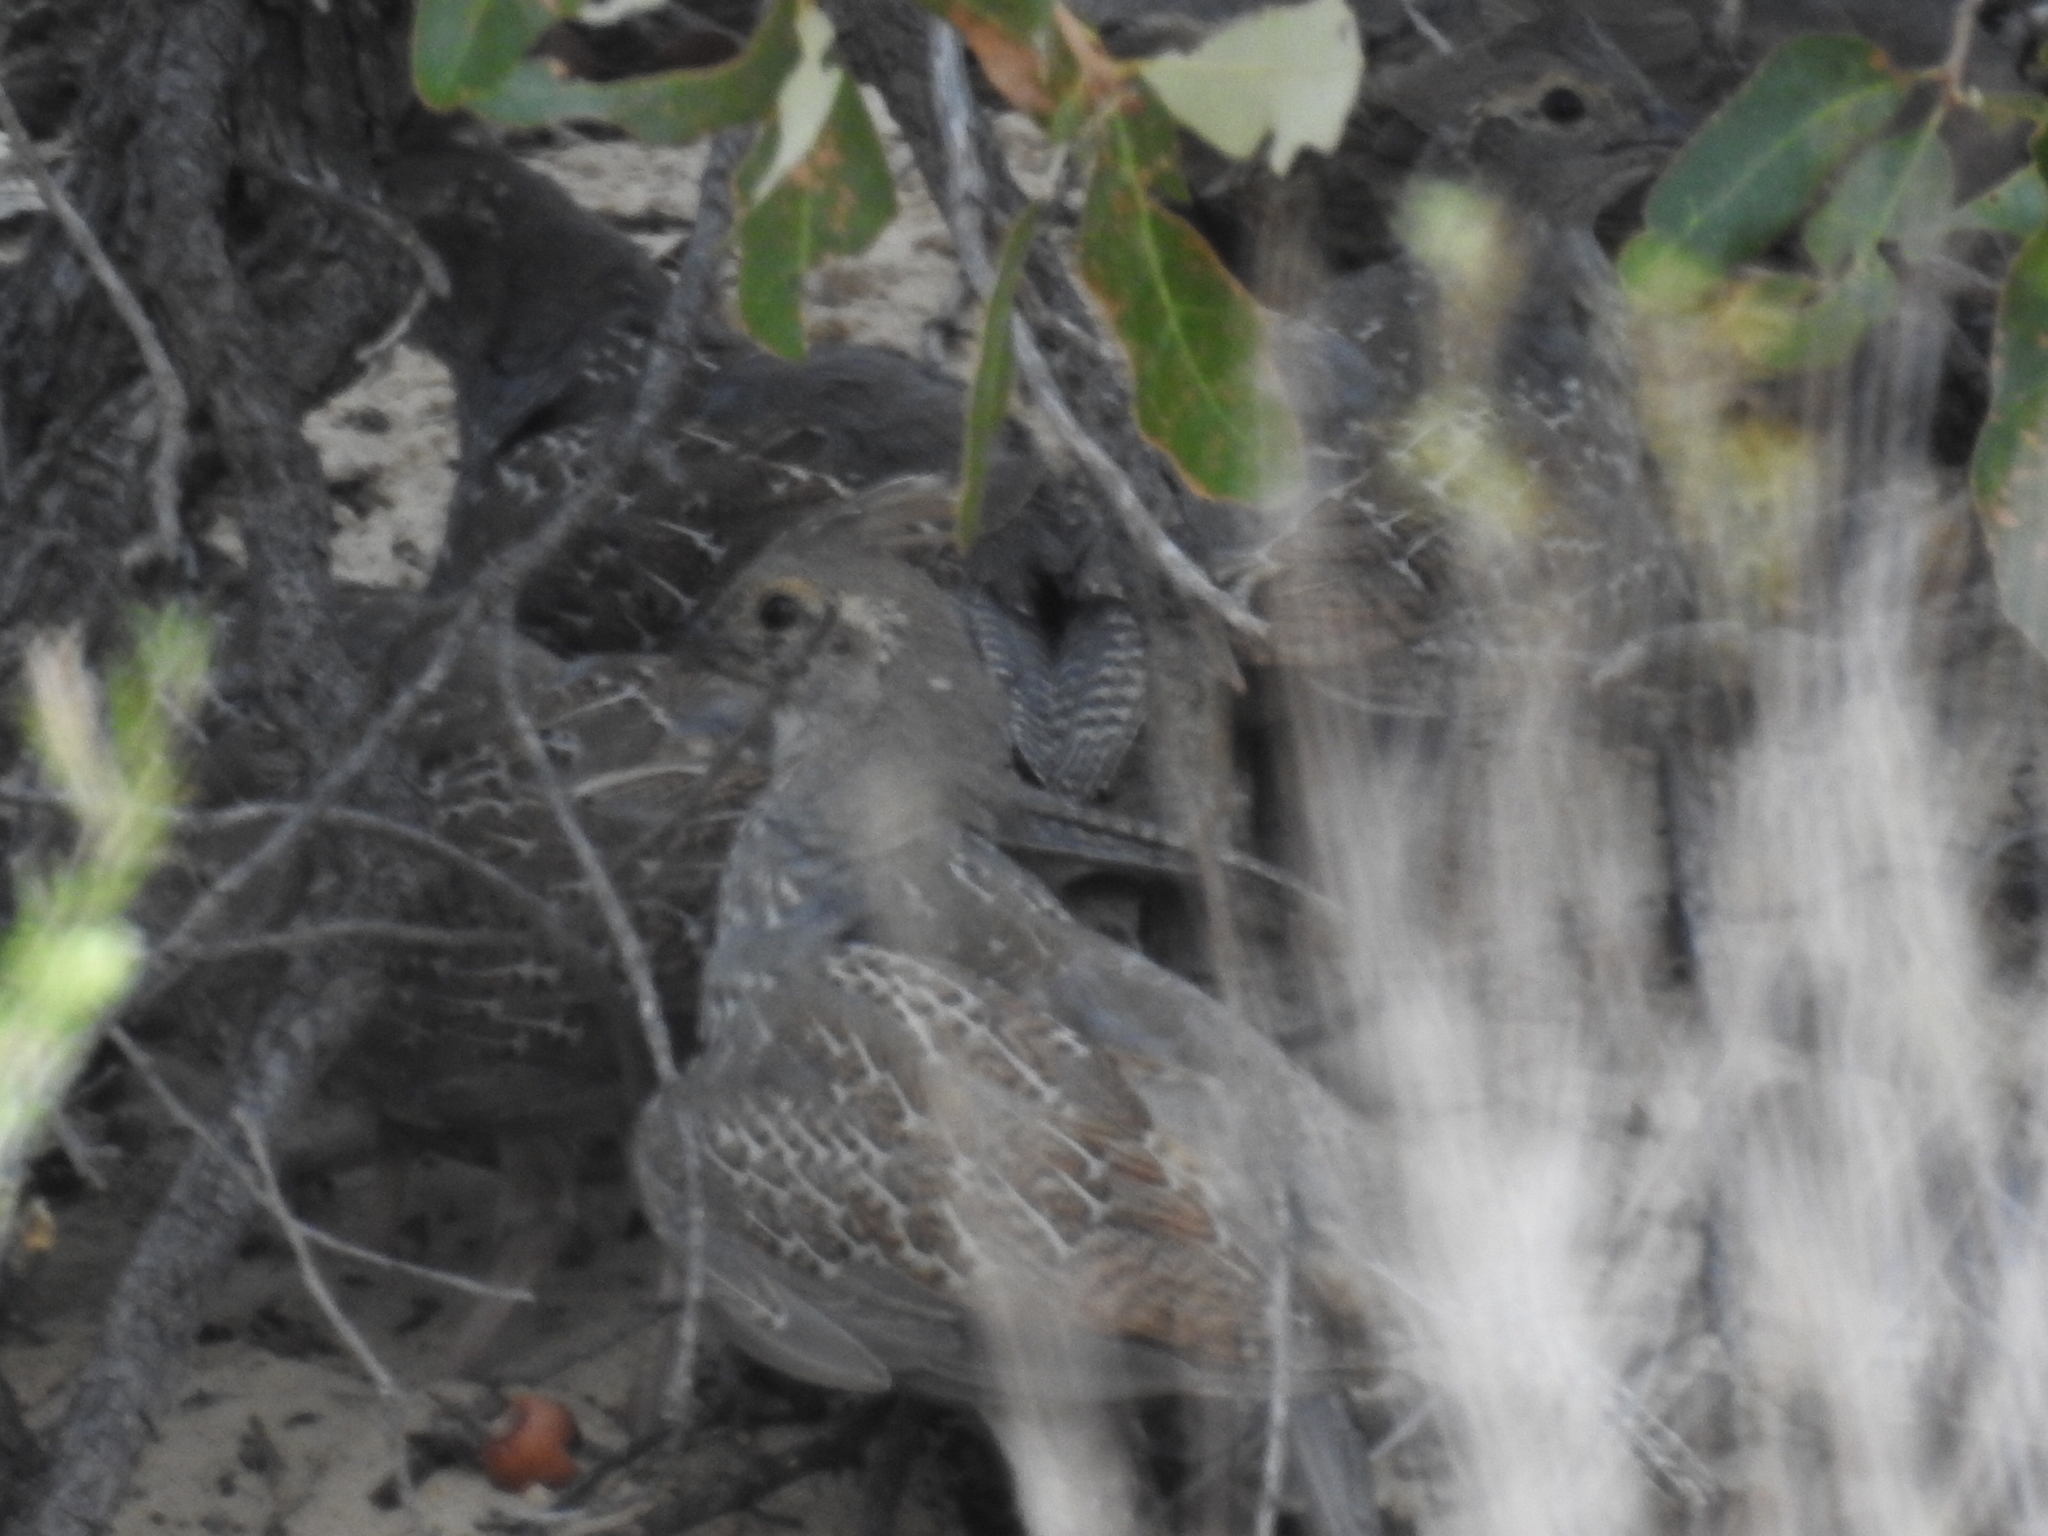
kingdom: Animalia
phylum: Chordata
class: Aves
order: Galliformes
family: Odontophoridae
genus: Callipepla
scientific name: Callipepla squamata
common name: Scaled quail
